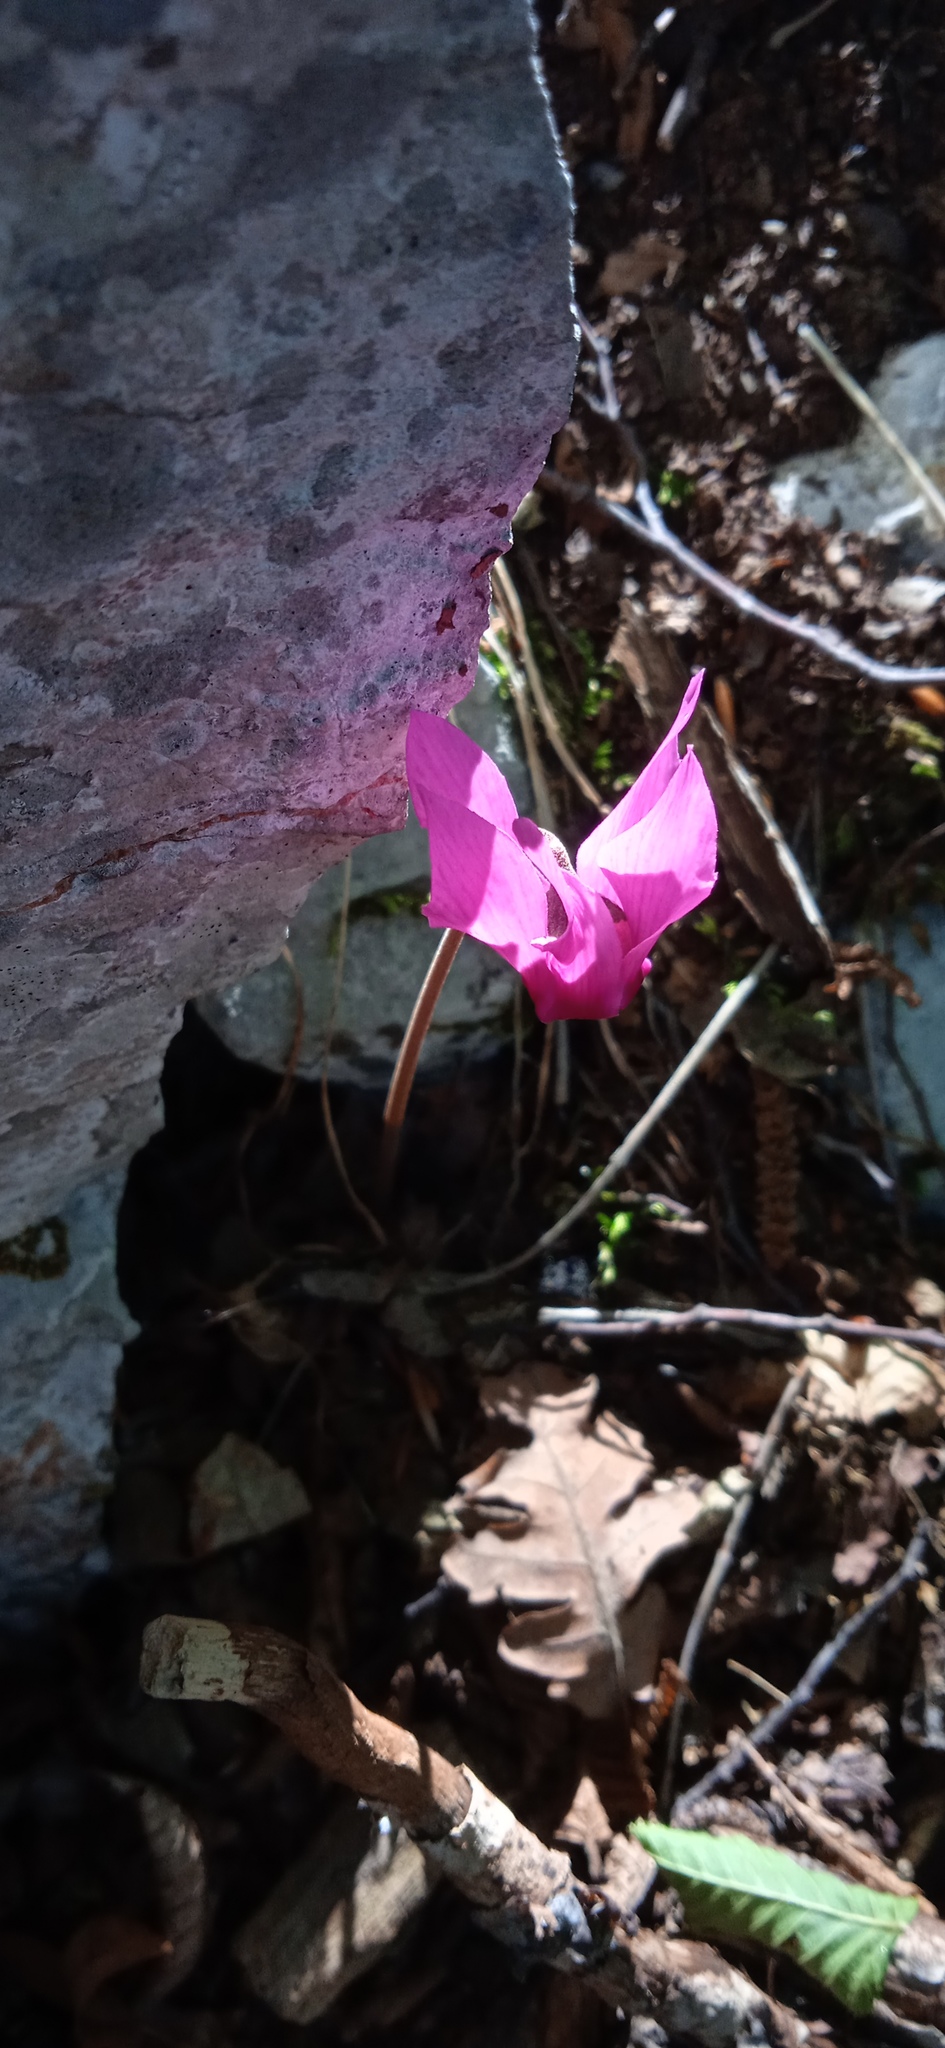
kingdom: Plantae
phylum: Tracheophyta
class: Magnoliopsida
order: Ericales
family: Primulaceae
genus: Cyclamen
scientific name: Cyclamen purpurascens
